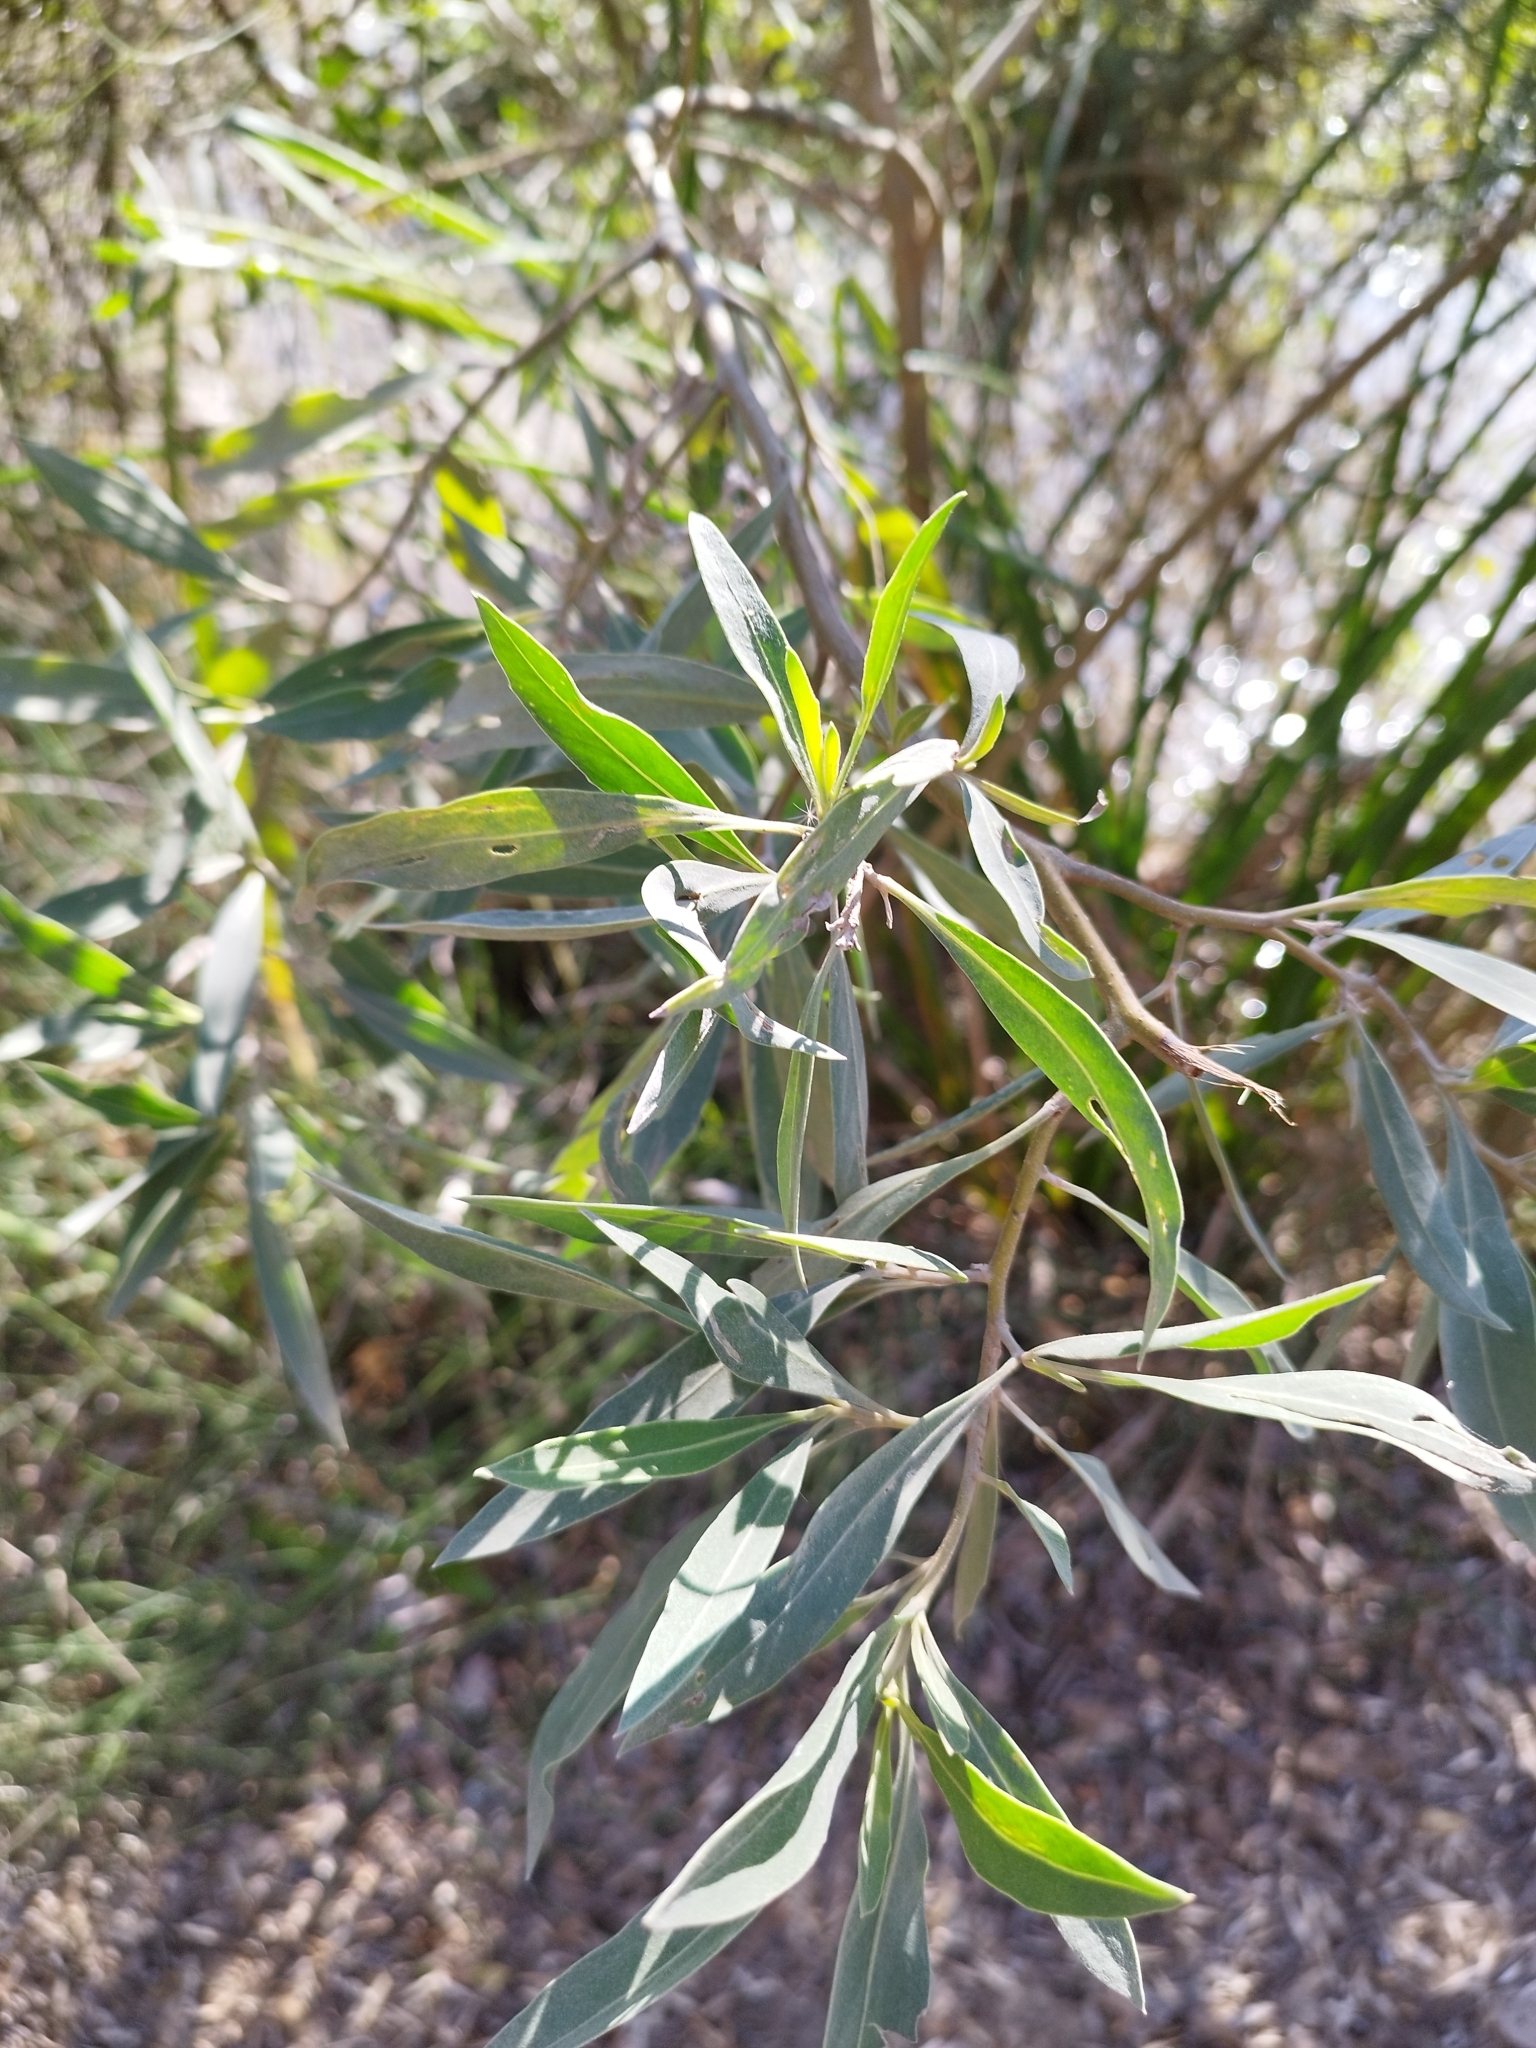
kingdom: Plantae
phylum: Tracheophyta
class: Magnoliopsida
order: Asterales
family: Asteraceae
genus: Tessaria
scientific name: Tessaria integrifolia
